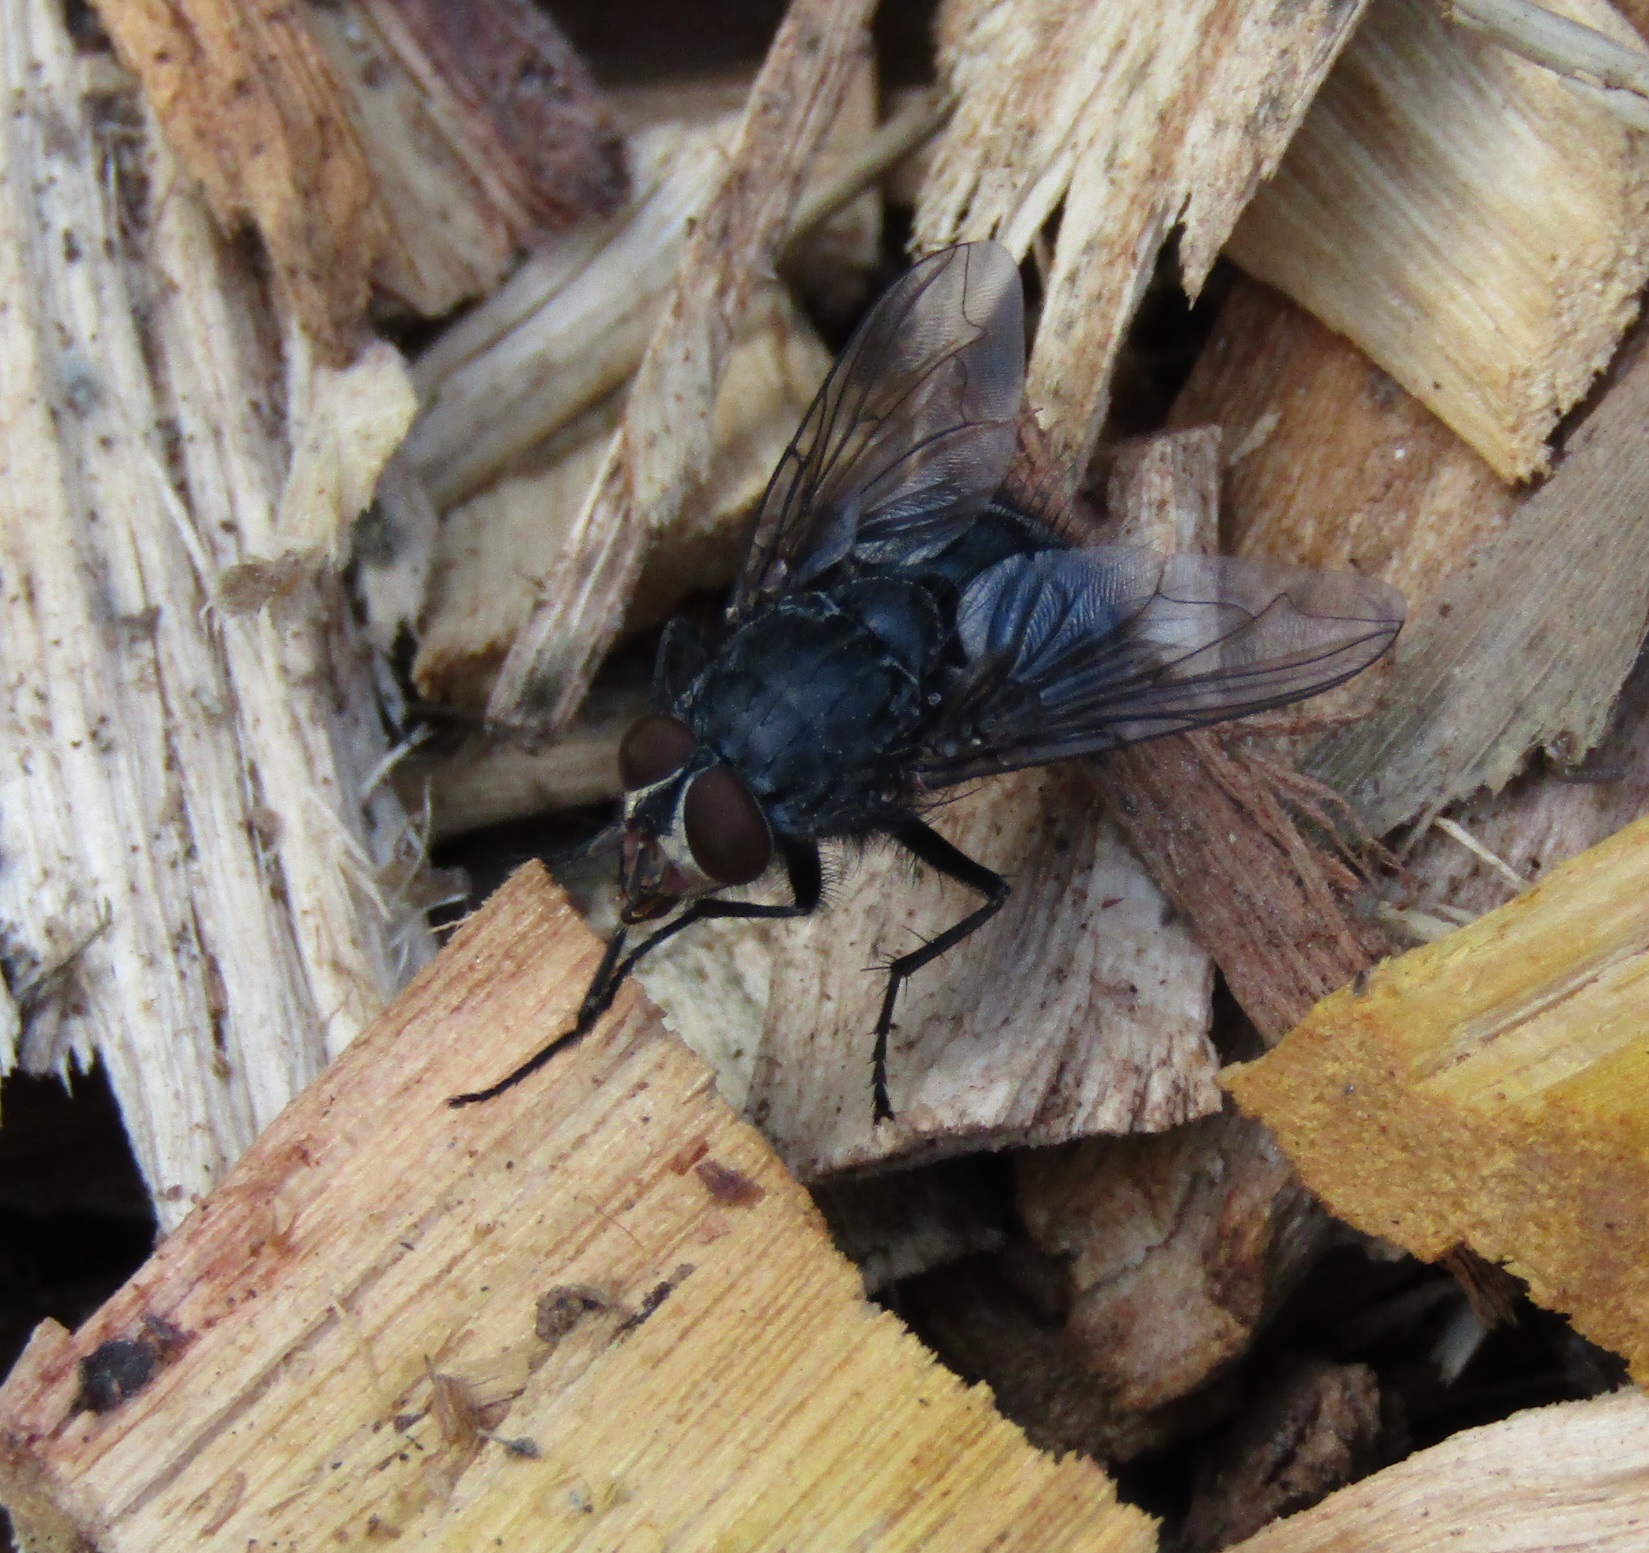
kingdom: Animalia
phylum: Arthropoda
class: Insecta
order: Diptera
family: Calliphoridae
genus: Calliphora
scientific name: Calliphora vicina
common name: Common blow flie
